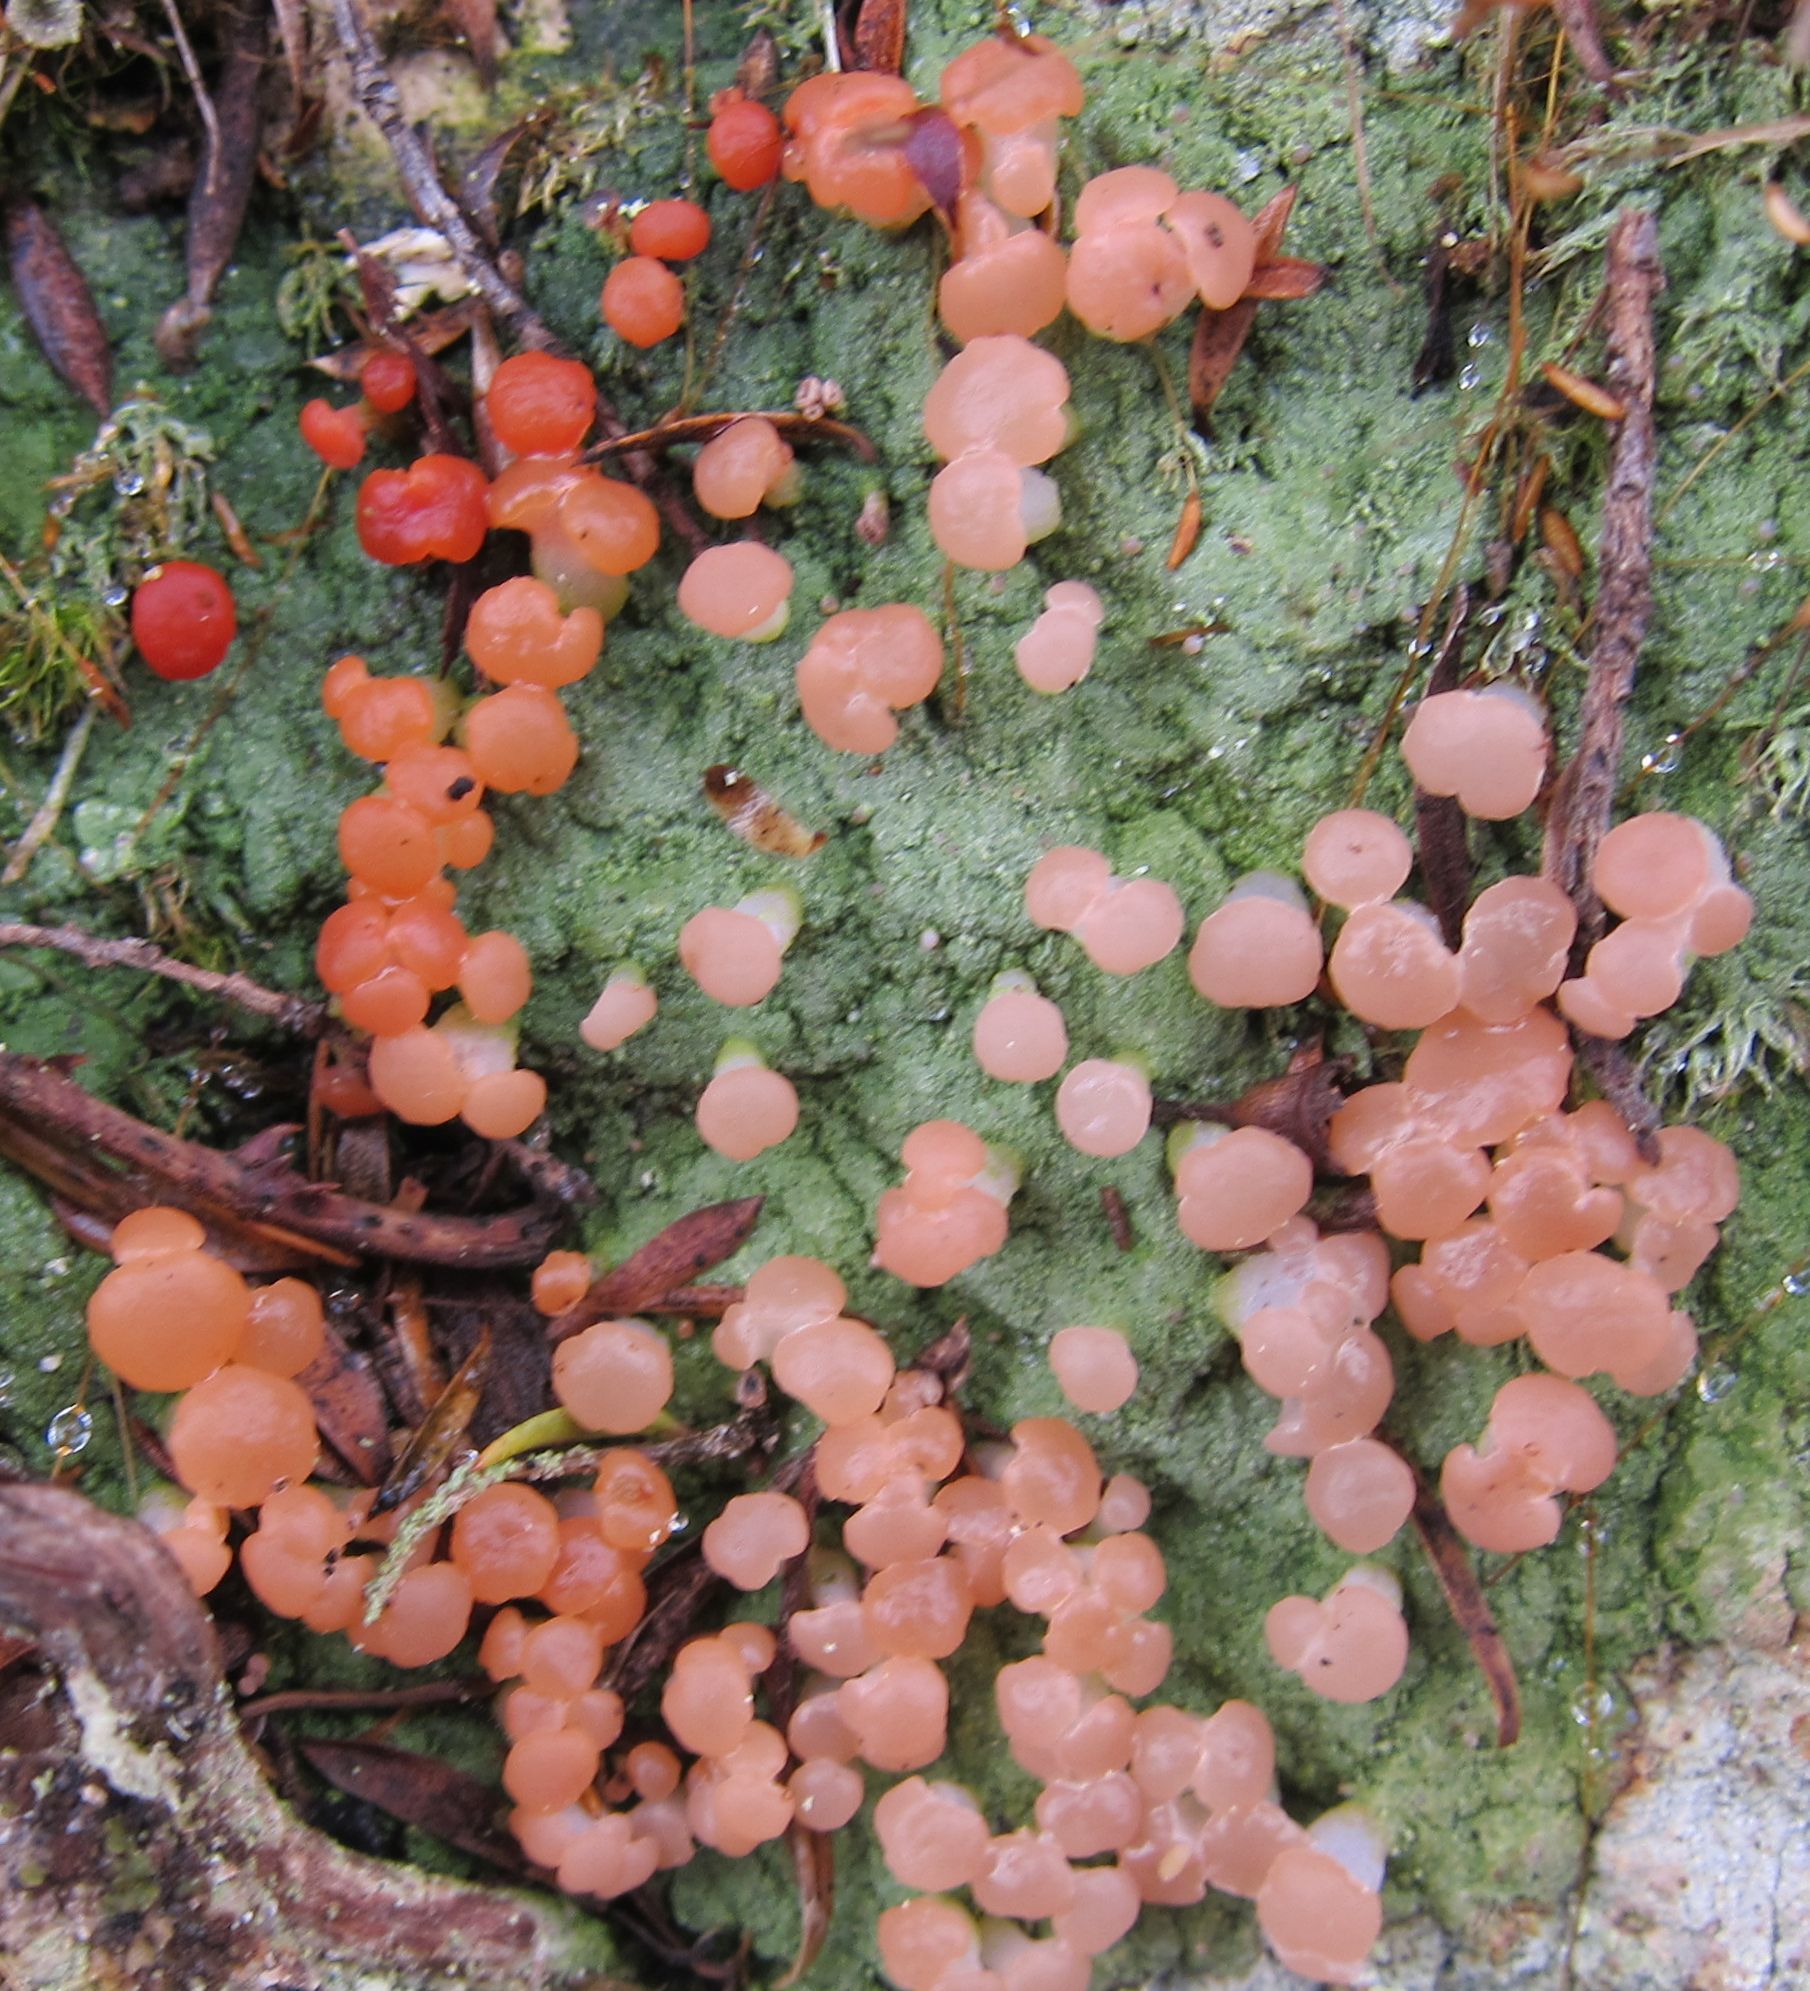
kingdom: Fungi
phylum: Ascomycota
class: Lecanoromycetes
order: Baeomycetales
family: Baeomycetaceae
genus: Baeomyces
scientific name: Baeomyces heteromorphus
